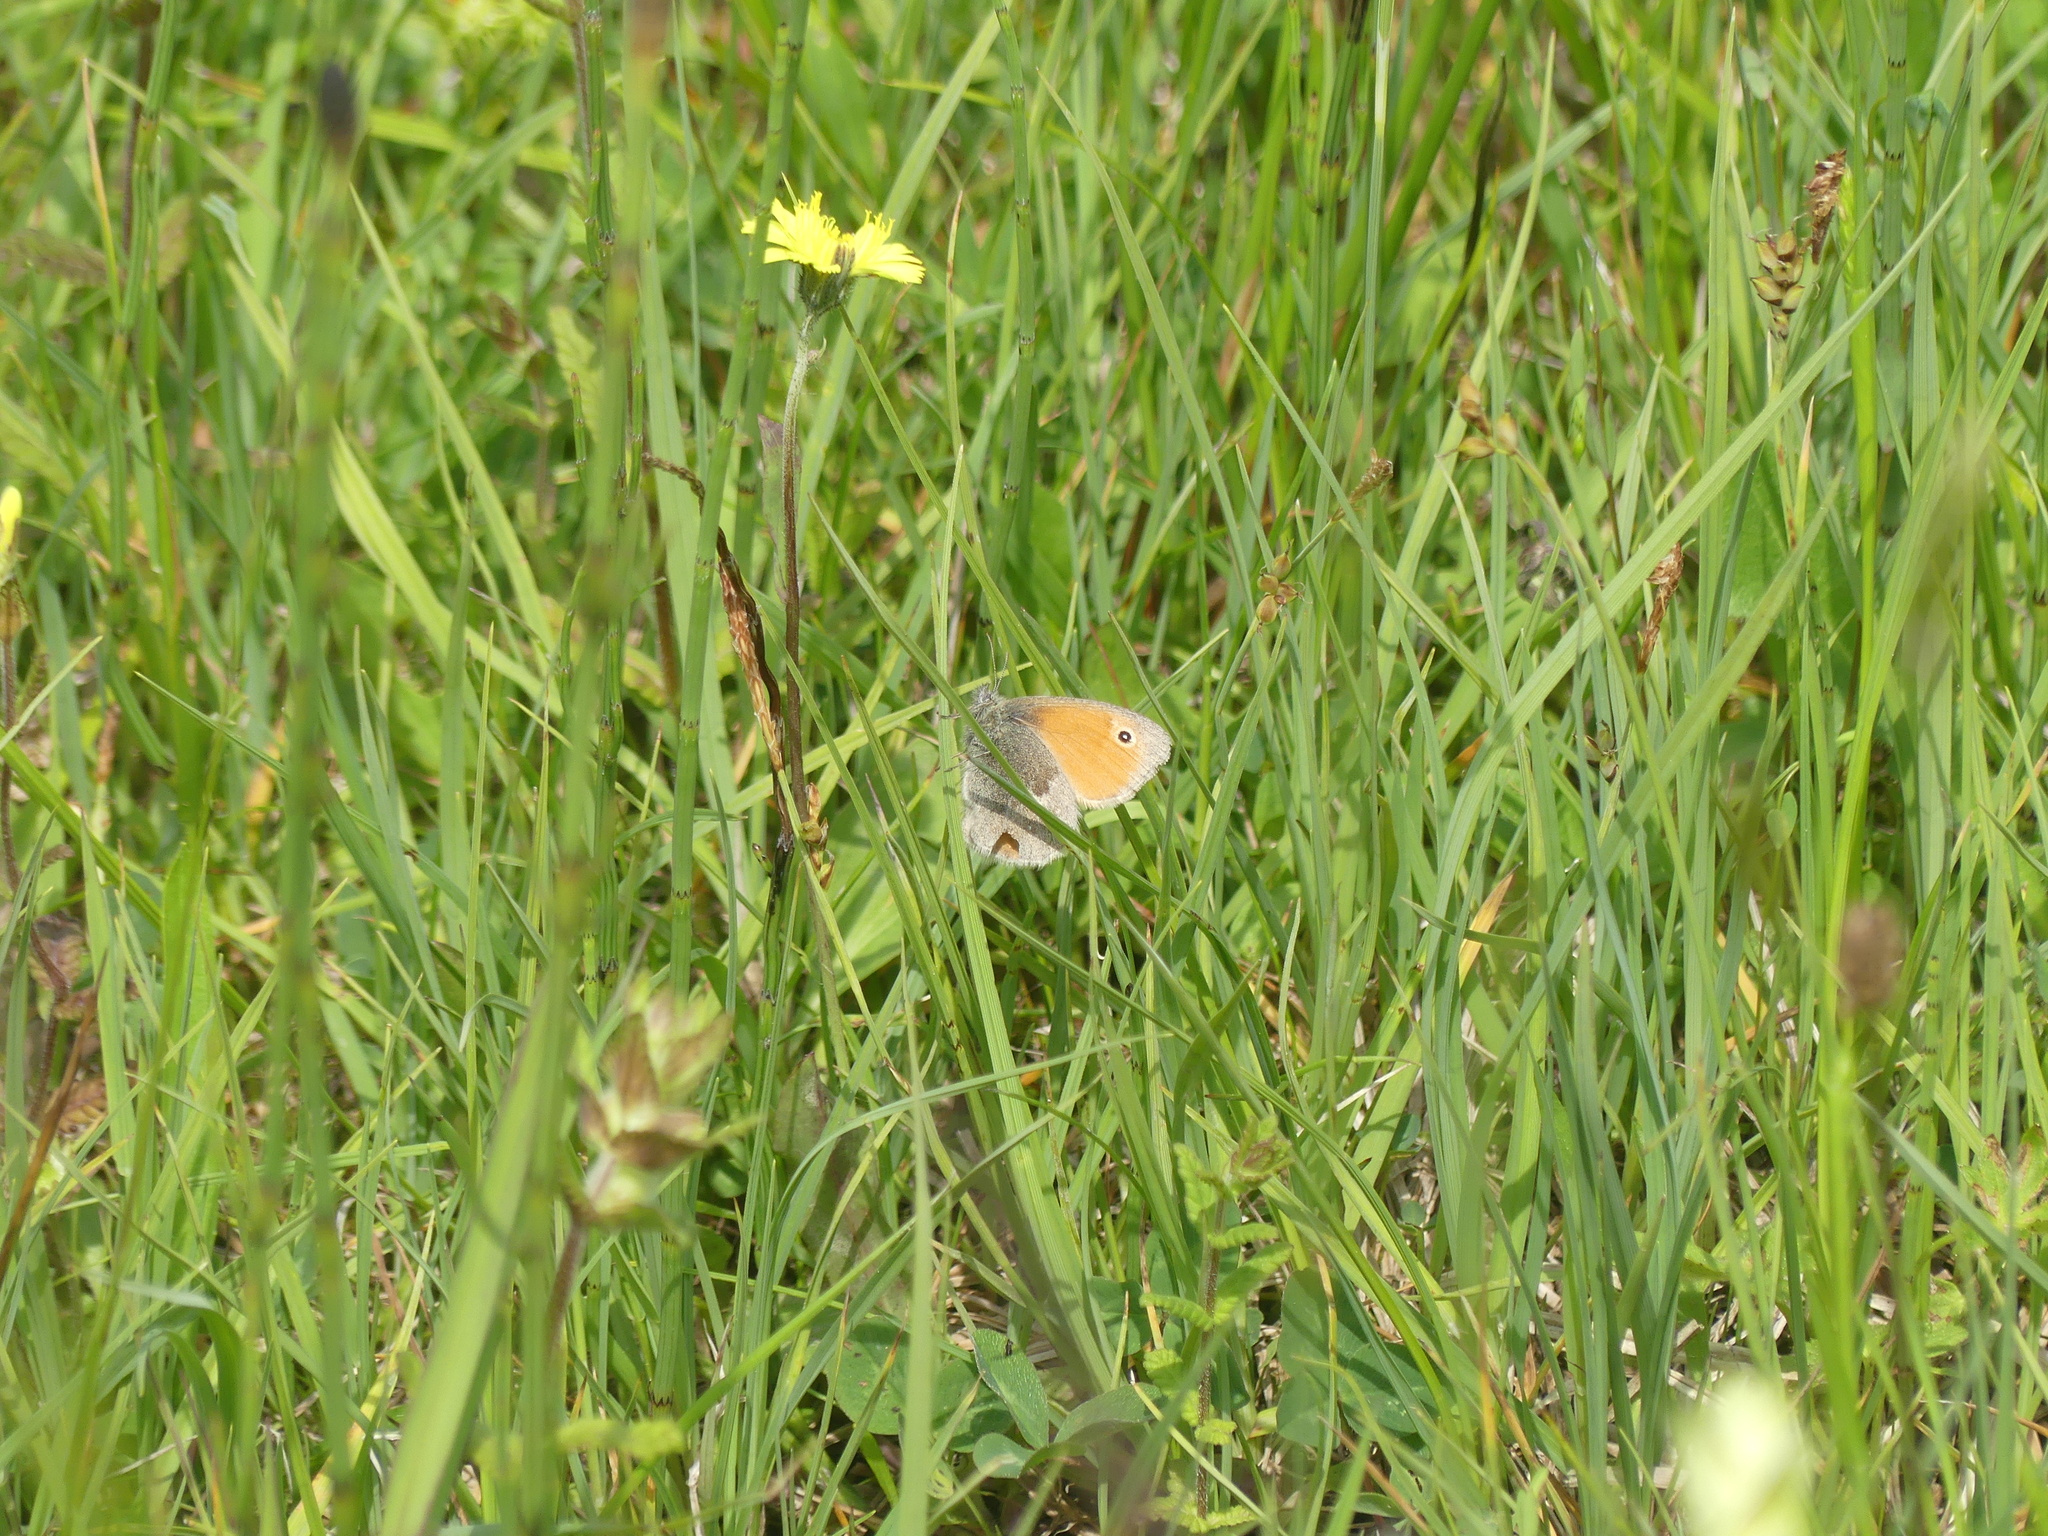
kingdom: Animalia
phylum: Arthropoda
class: Insecta
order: Lepidoptera
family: Nymphalidae
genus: Coenonympha
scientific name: Coenonympha pamphilus
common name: Small heath
